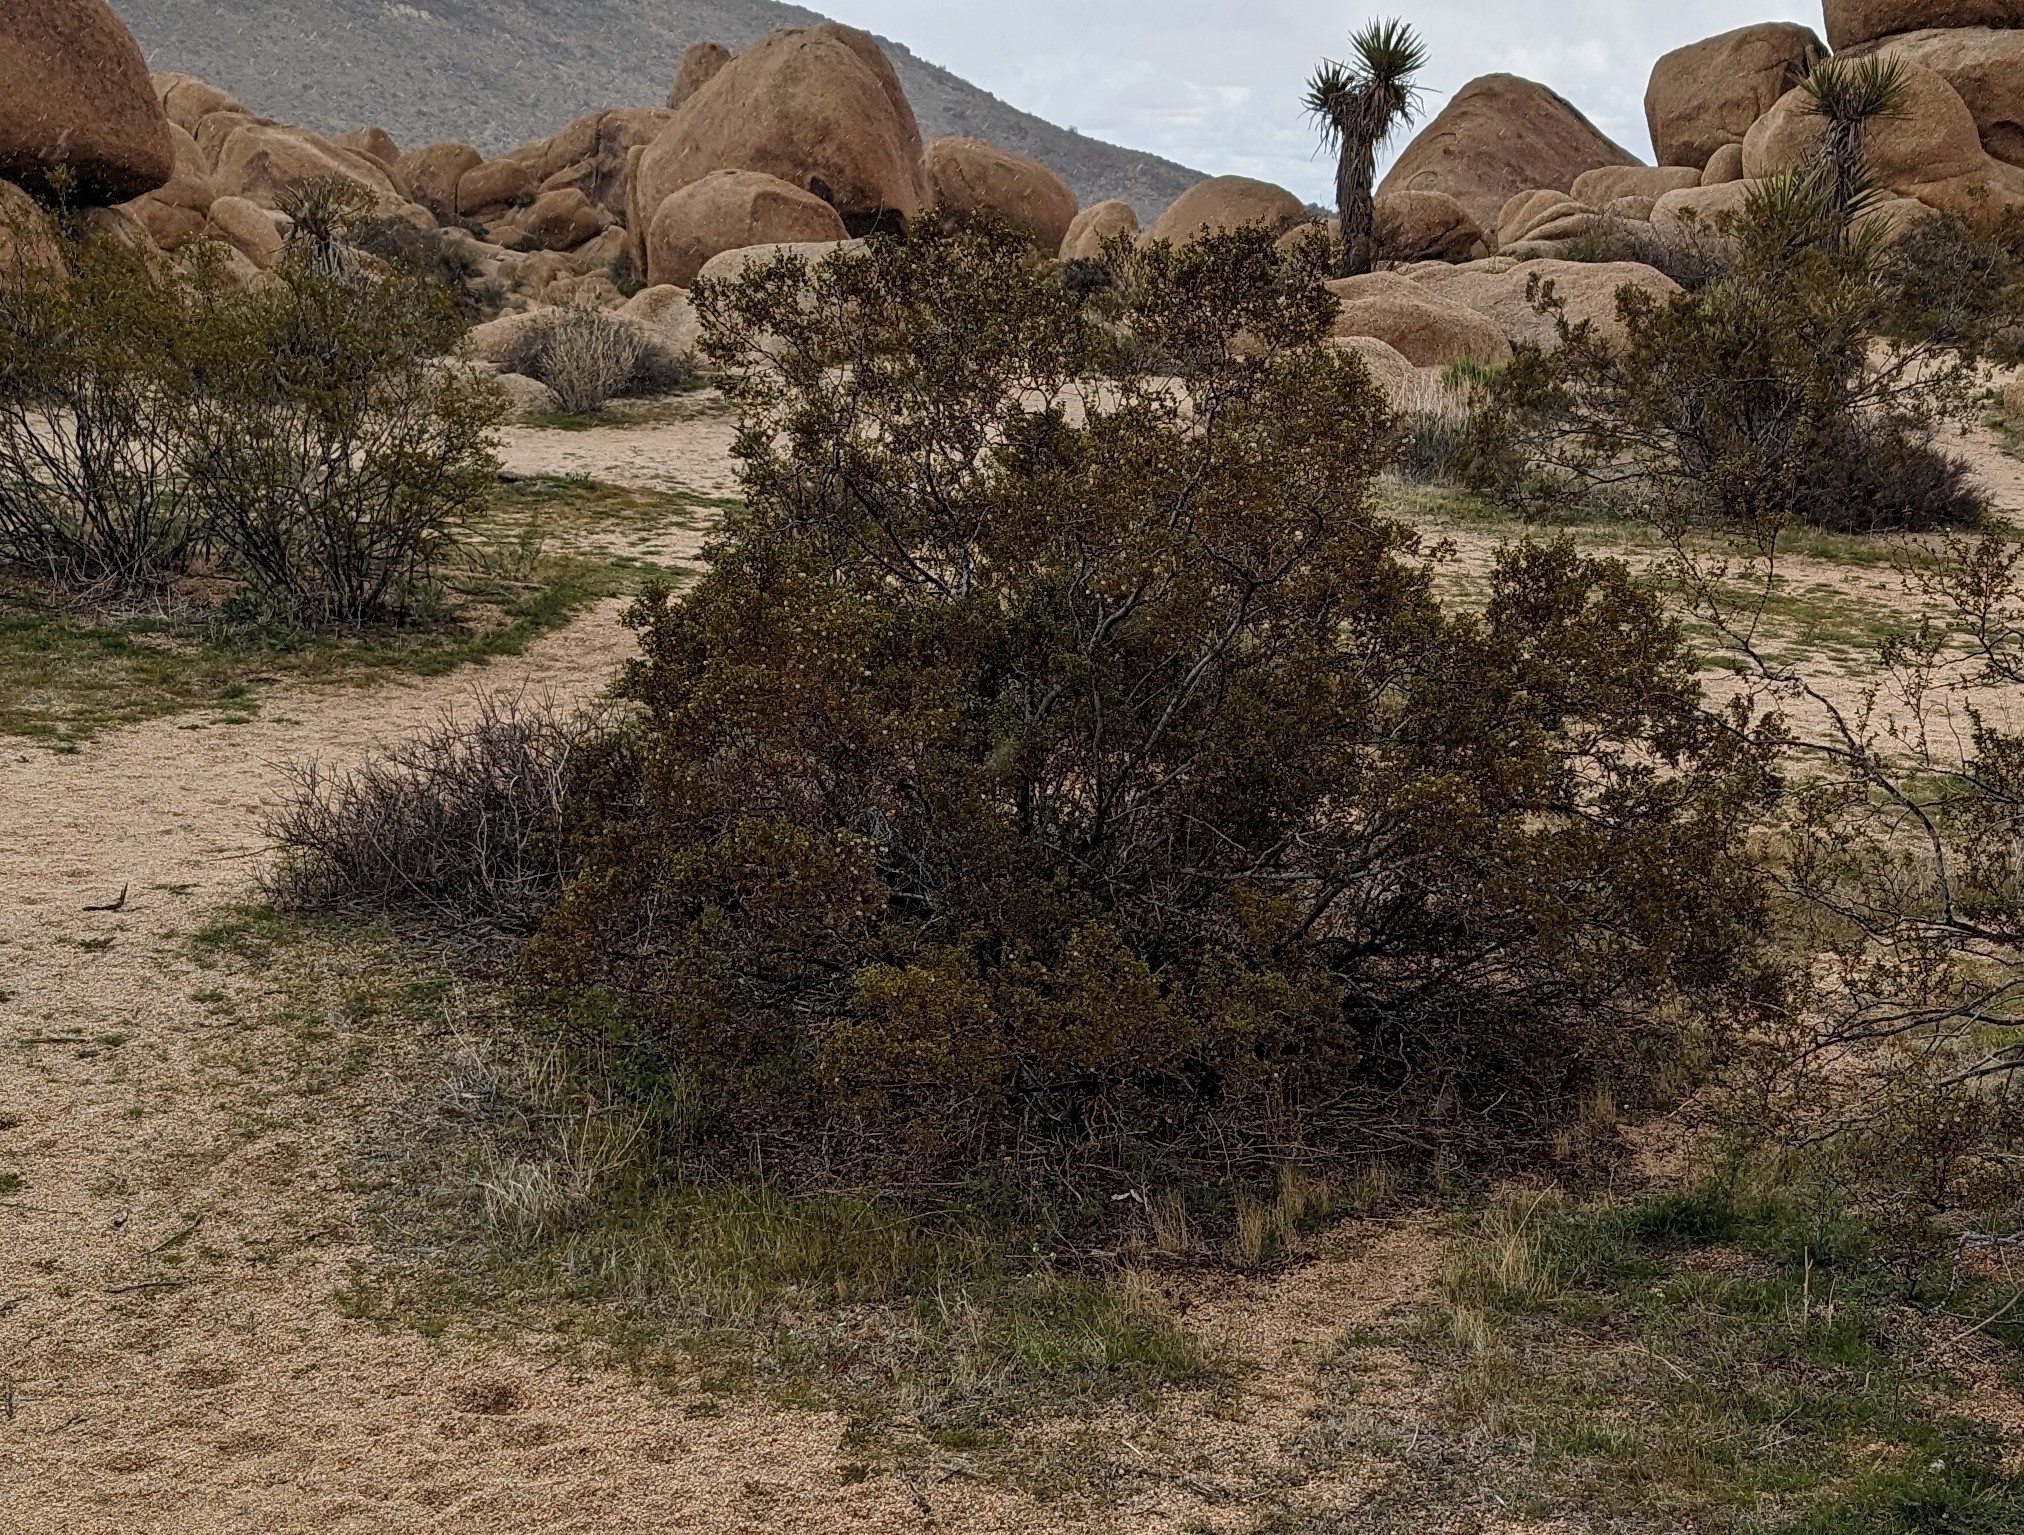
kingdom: Plantae
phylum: Tracheophyta
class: Magnoliopsida
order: Zygophyllales
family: Zygophyllaceae
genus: Larrea
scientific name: Larrea tridentata
